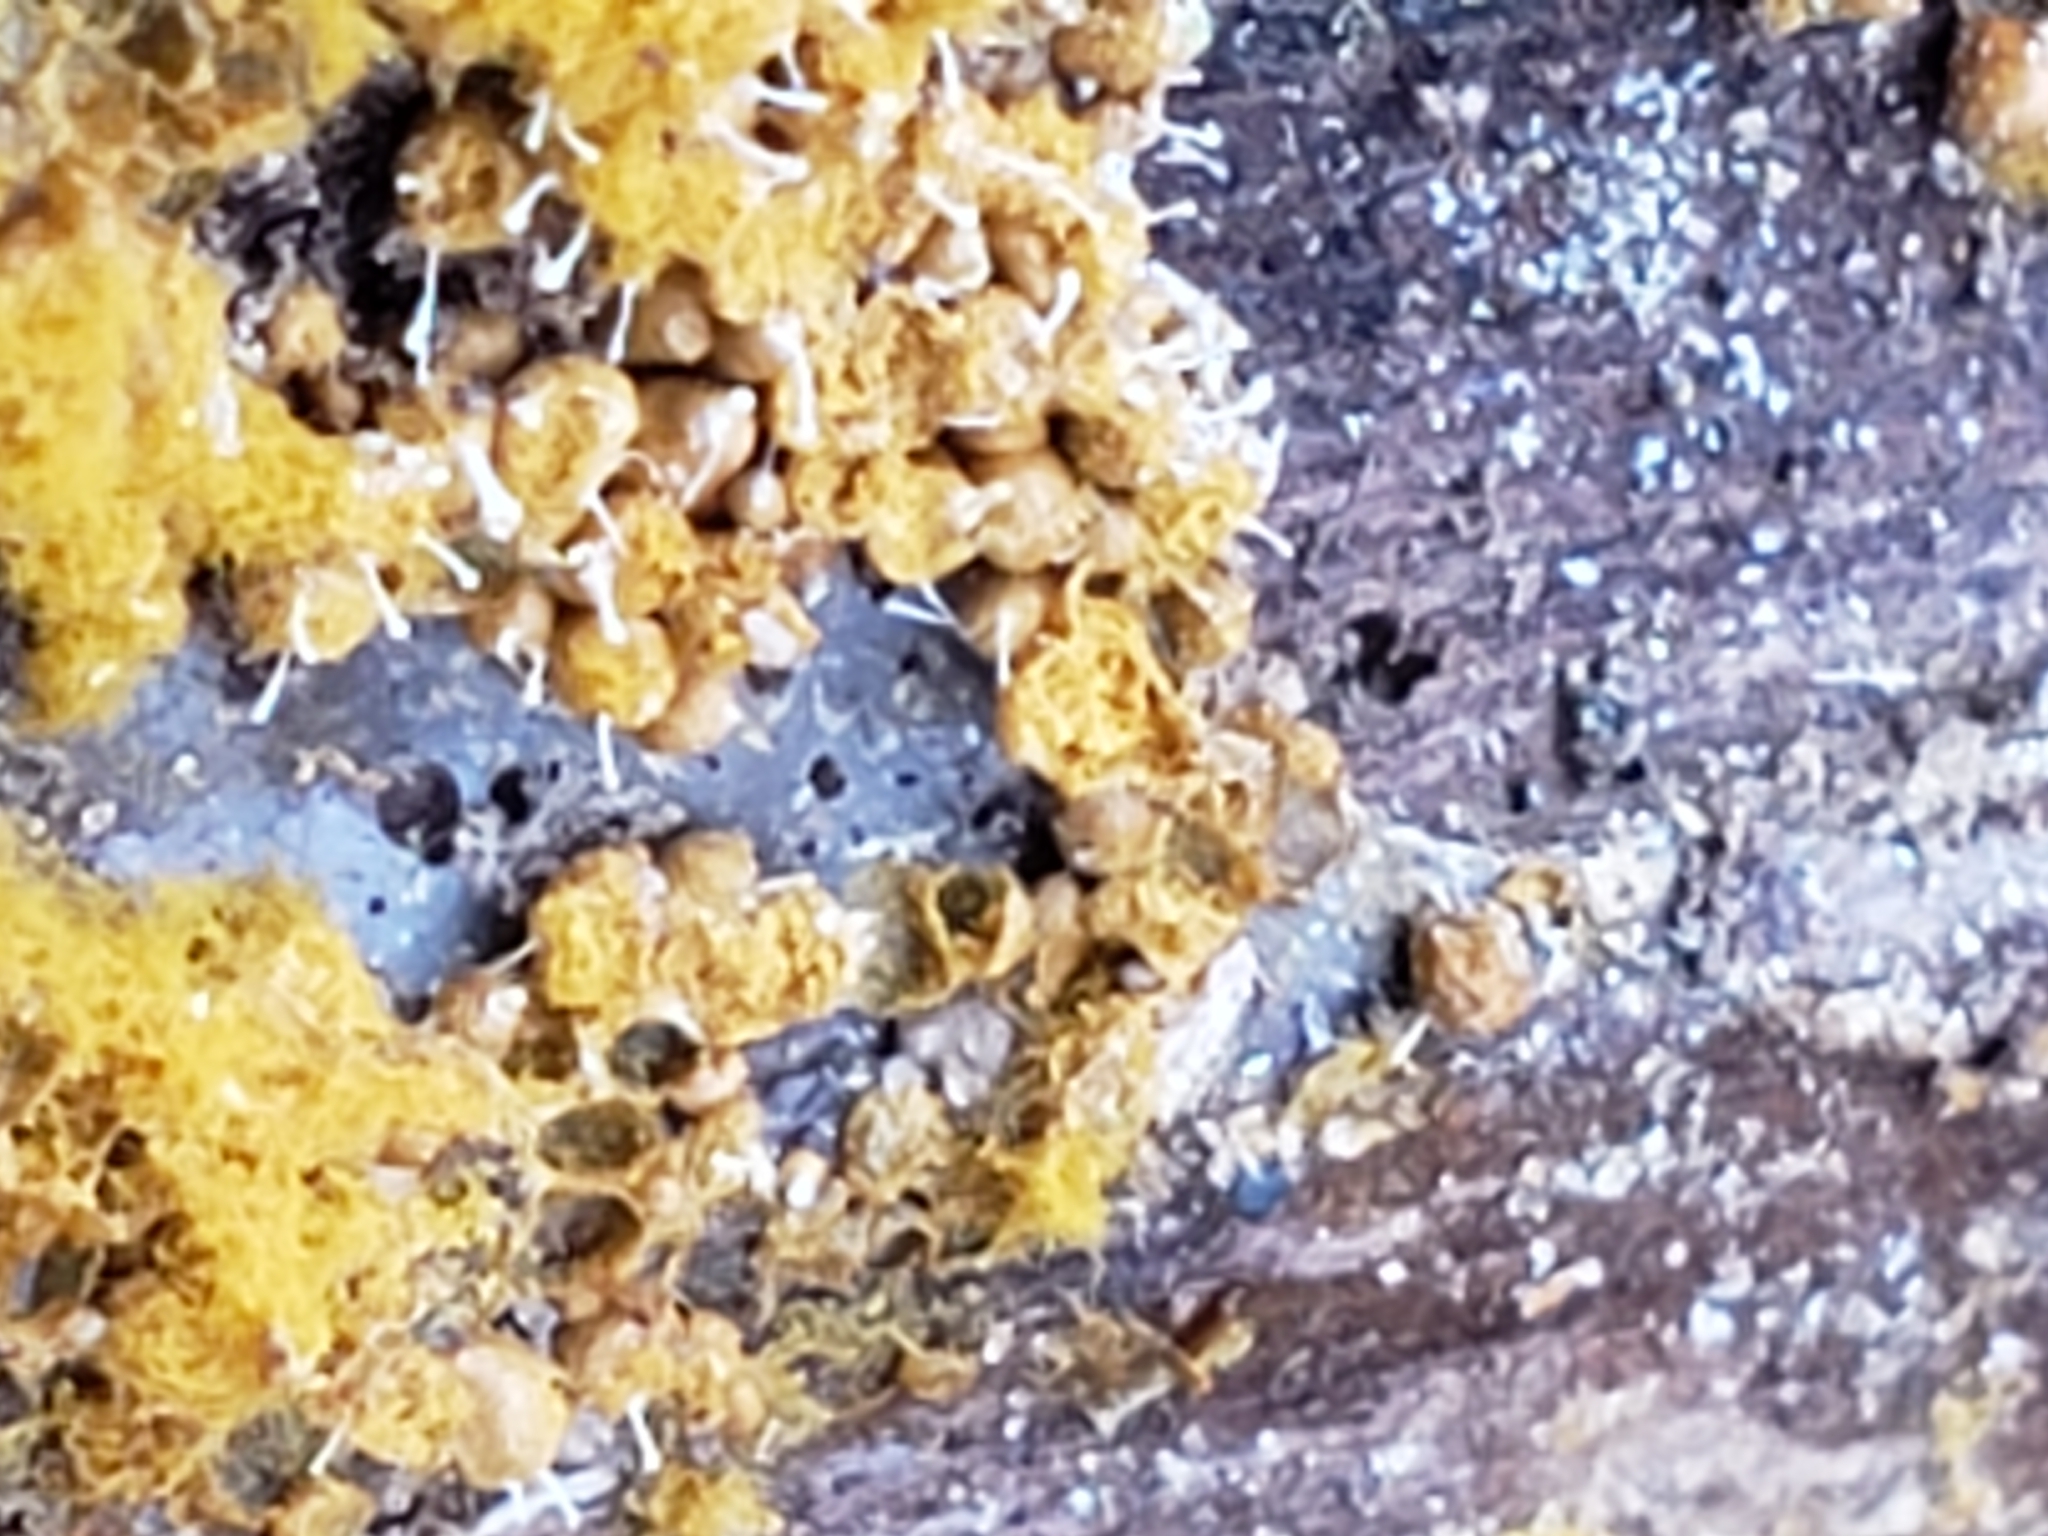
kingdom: Fungi
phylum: Ascomycota
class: Sordariomycetes
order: Hypocreales
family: Ophiocordycipitaceae
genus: Polycephalomyces
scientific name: Polycephalomyces tomentosus
